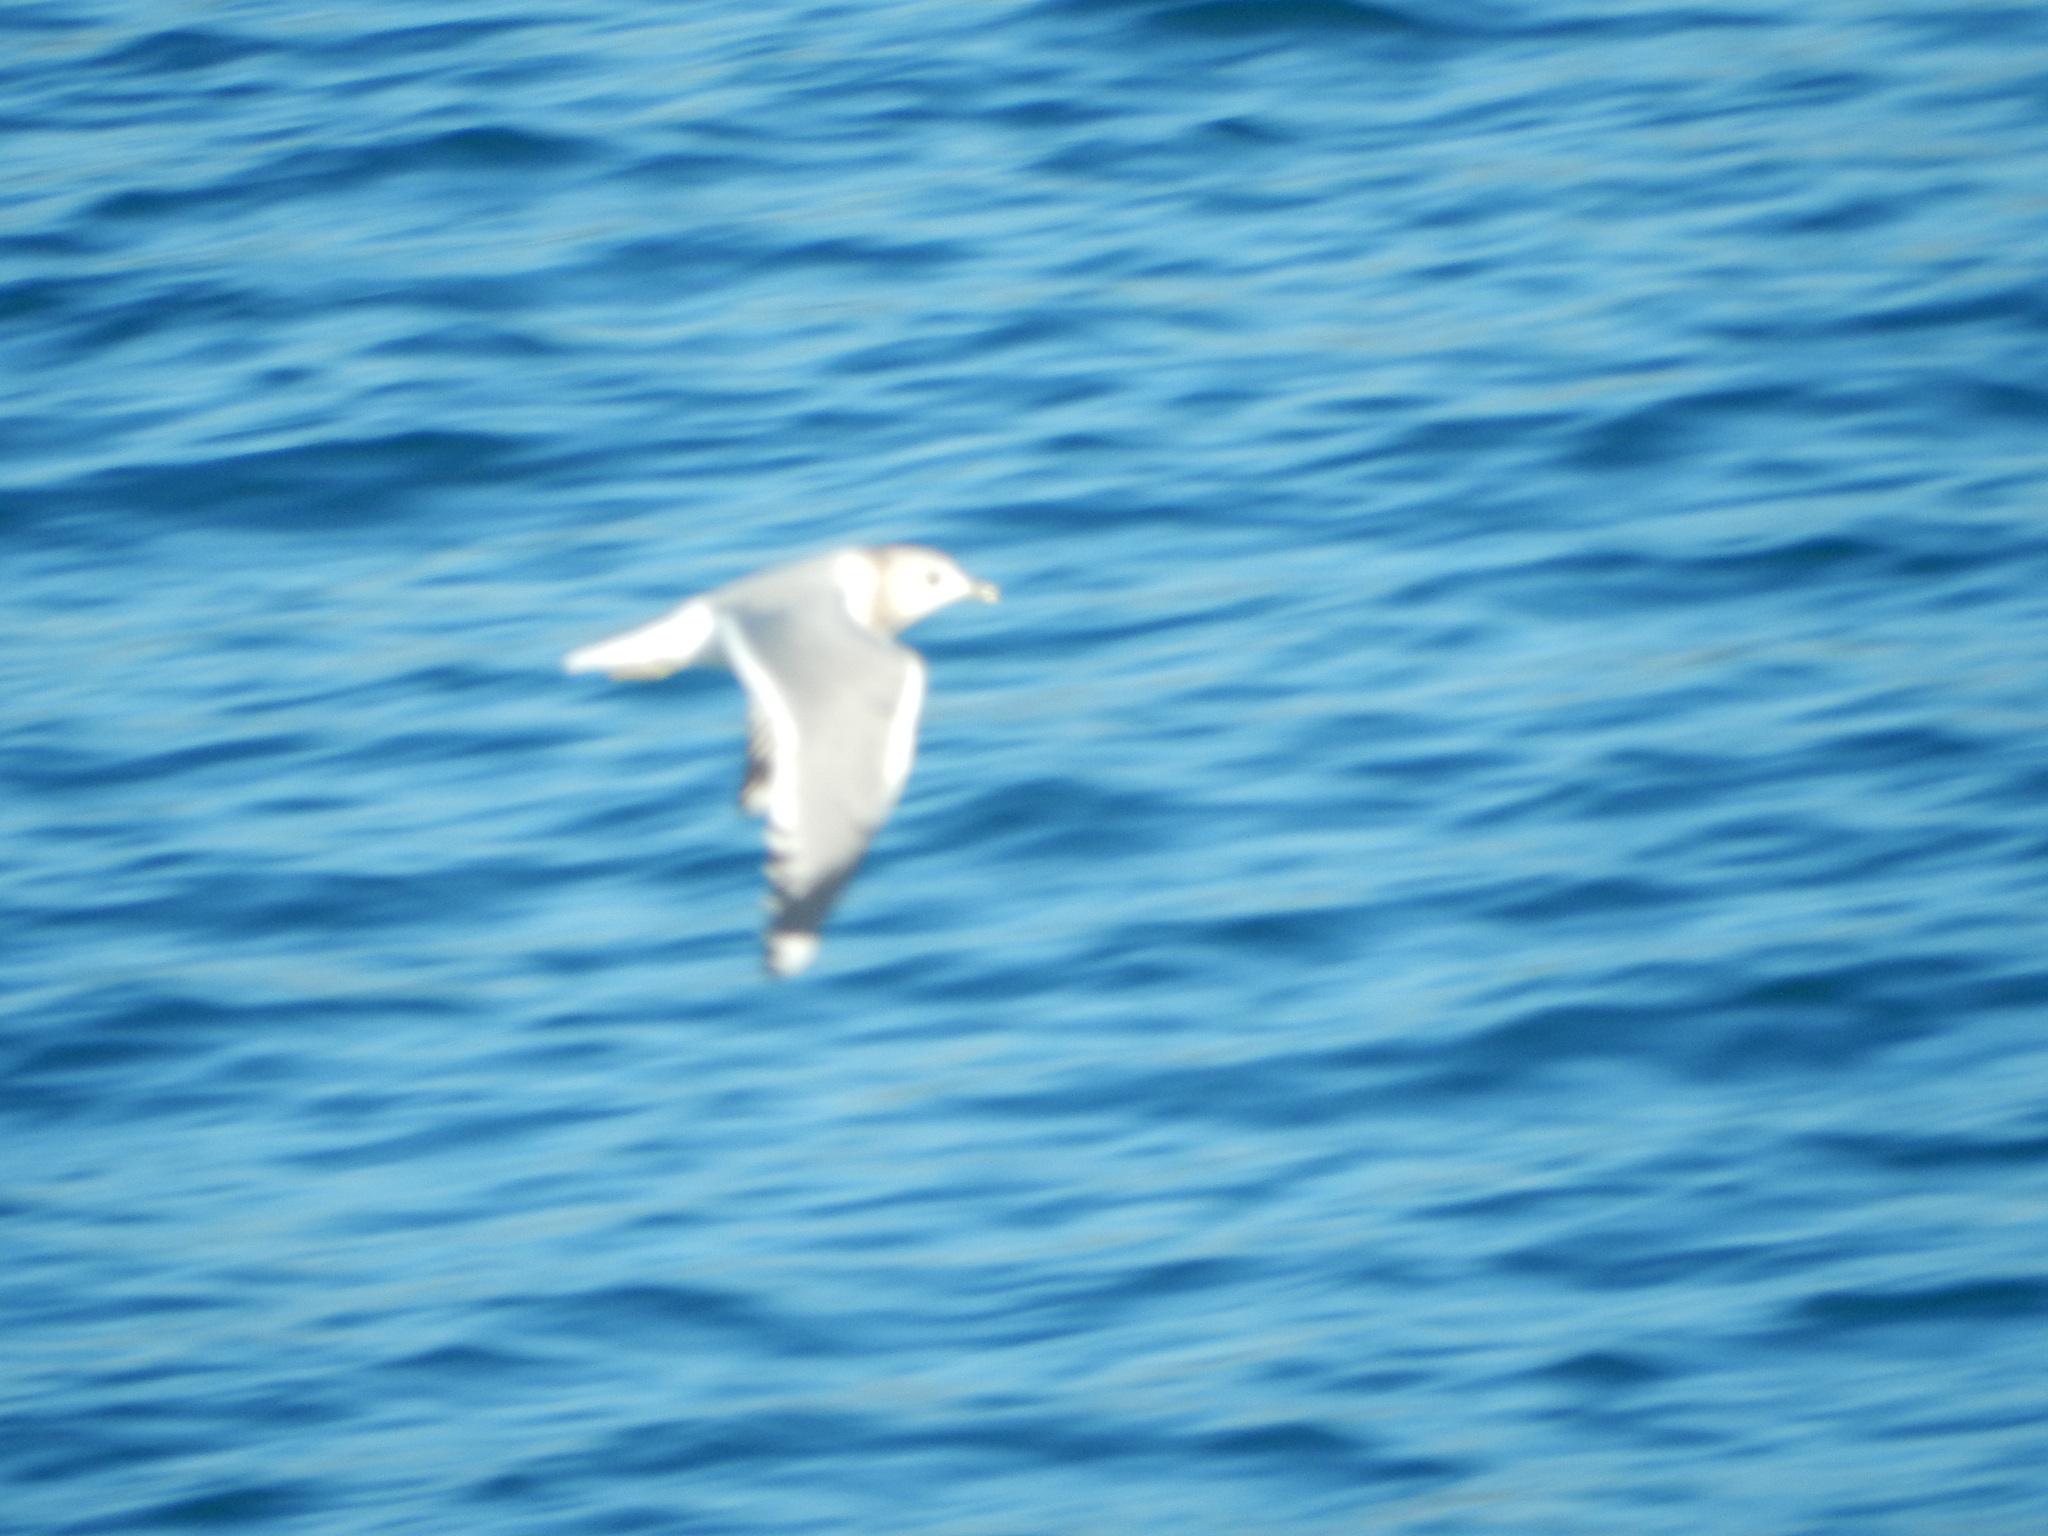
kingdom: Animalia
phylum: Chordata
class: Aves
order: Charadriiformes
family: Laridae
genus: Larus
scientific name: Larus brachyrhynchus
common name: Short-billed gull
